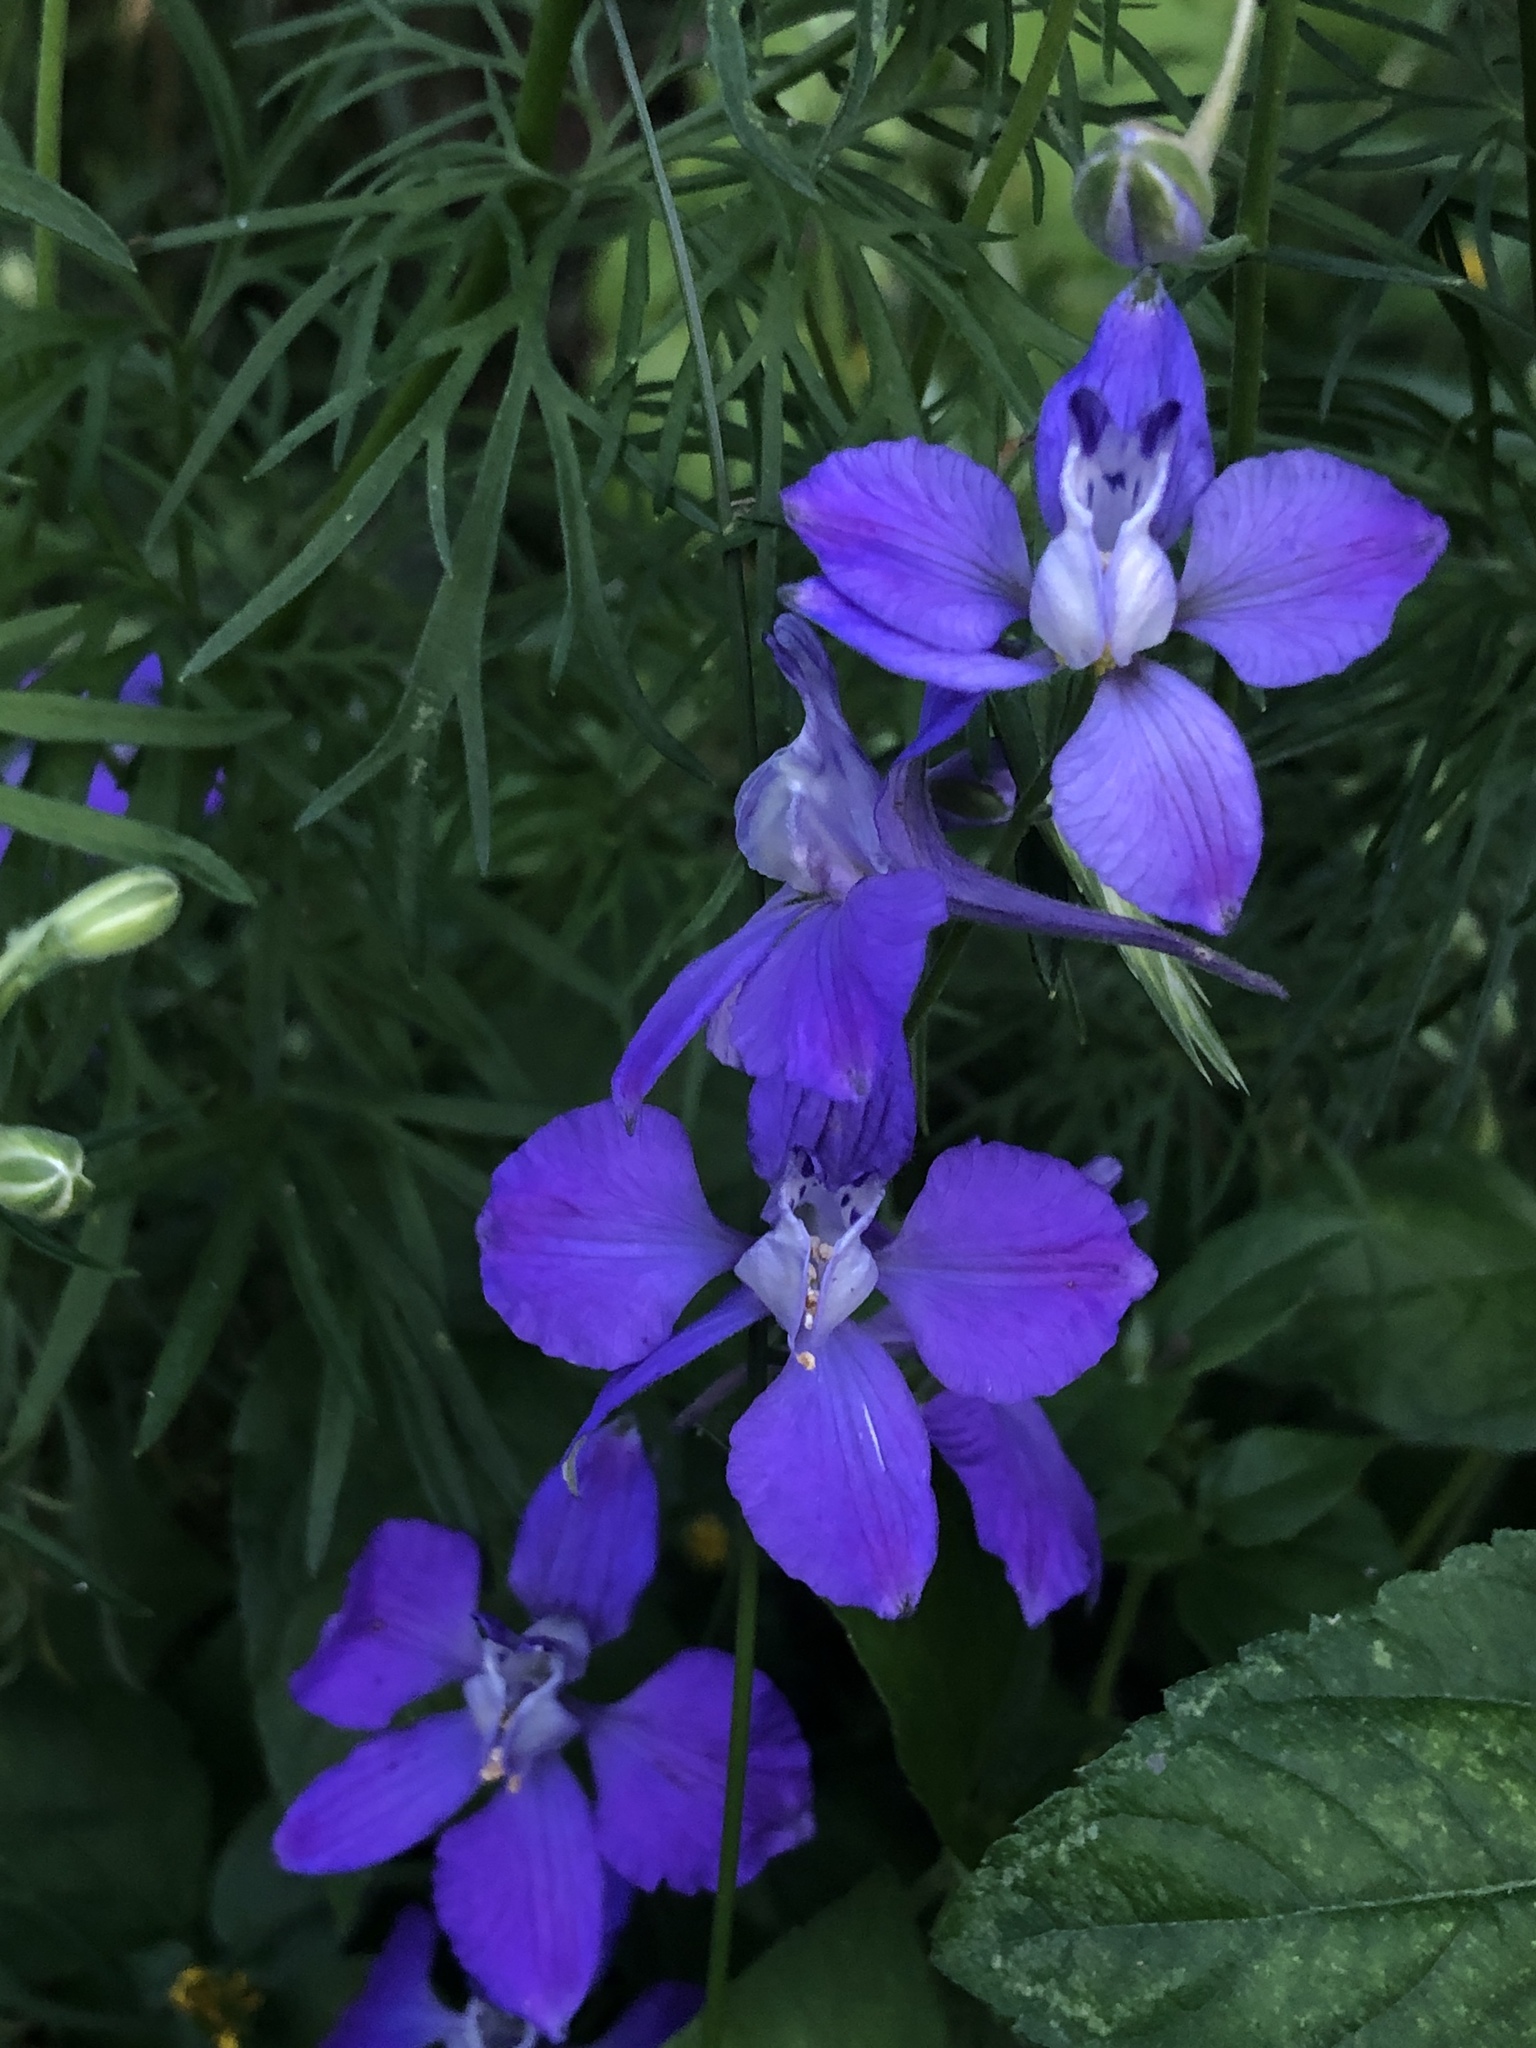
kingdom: Plantae
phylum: Tracheophyta
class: Magnoliopsida
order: Ranunculales
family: Ranunculaceae
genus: Delphinium
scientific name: Delphinium ajacis
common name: Doubtful knight's-spur
